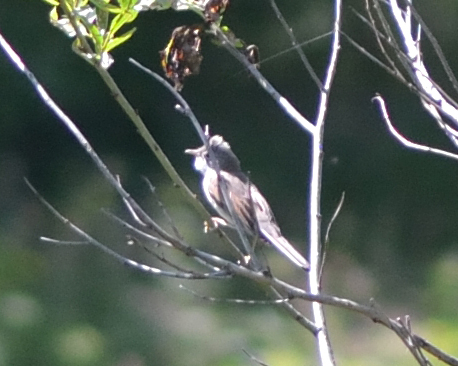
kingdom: Animalia
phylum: Chordata
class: Aves
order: Passeriformes
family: Sylviidae
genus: Sylvia
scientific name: Sylvia communis
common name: Common whitethroat
